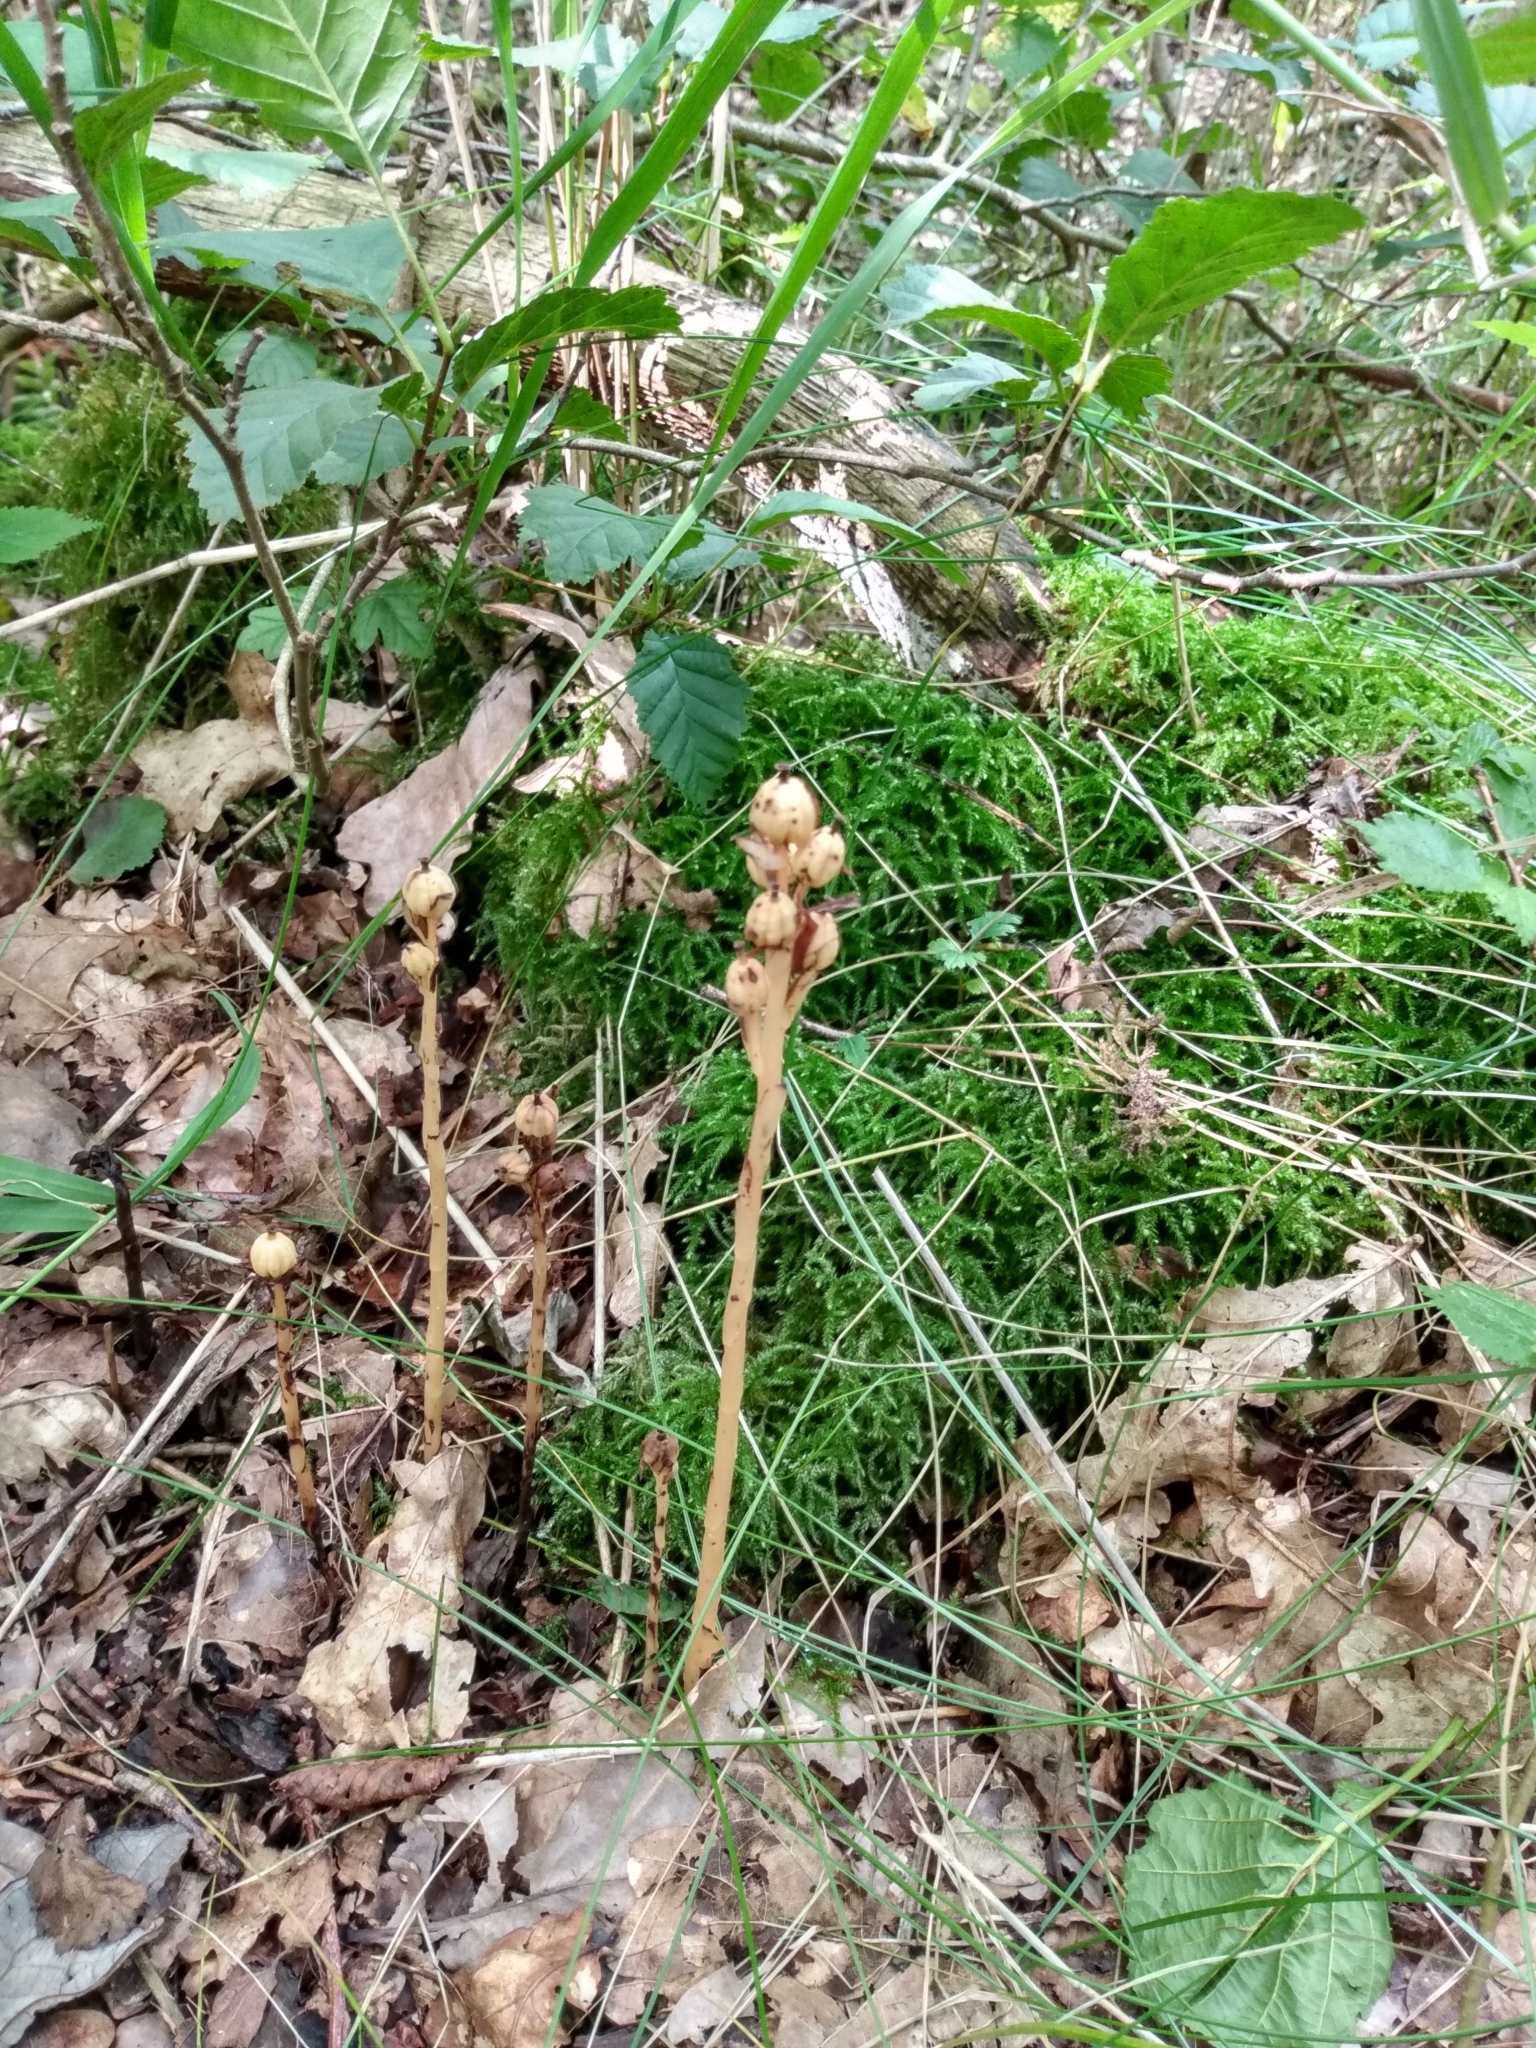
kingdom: Plantae
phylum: Tracheophyta
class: Magnoliopsida
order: Ericales
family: Ericaceae
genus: Hypopitys
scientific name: Hypopitys monotropa
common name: Yellow bird's-nest
